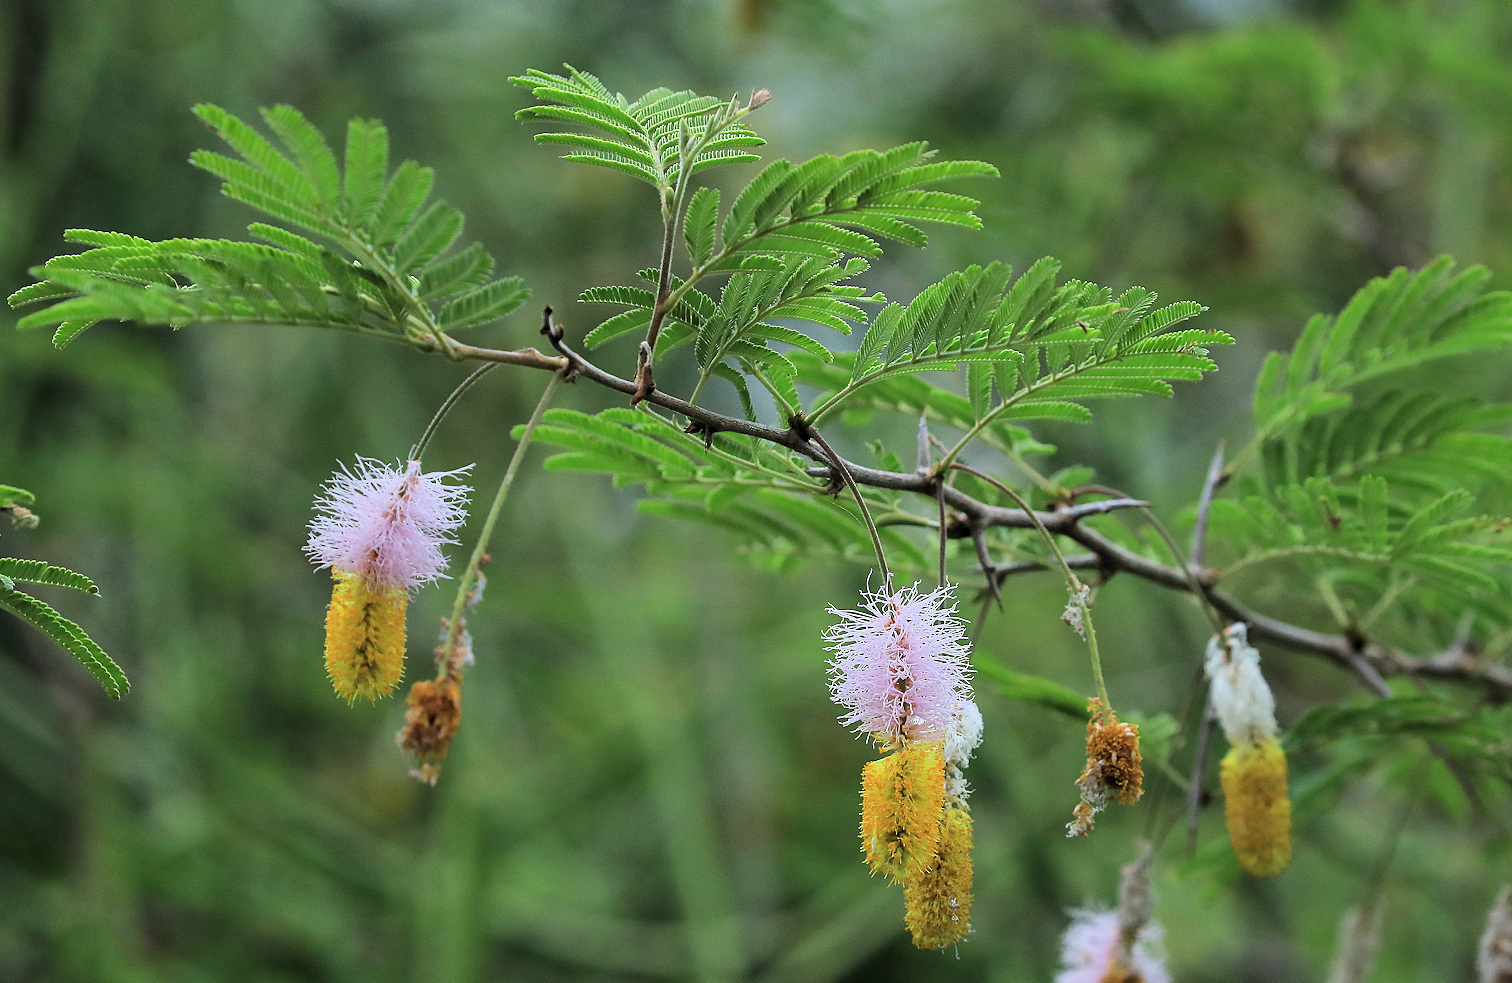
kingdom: Plantae
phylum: Tracheophyta
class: Magnoliopsida
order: Fabales
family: Fabaceae
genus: Dichrostachys
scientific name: Dichrostachys cinerea
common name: Sicklebush
